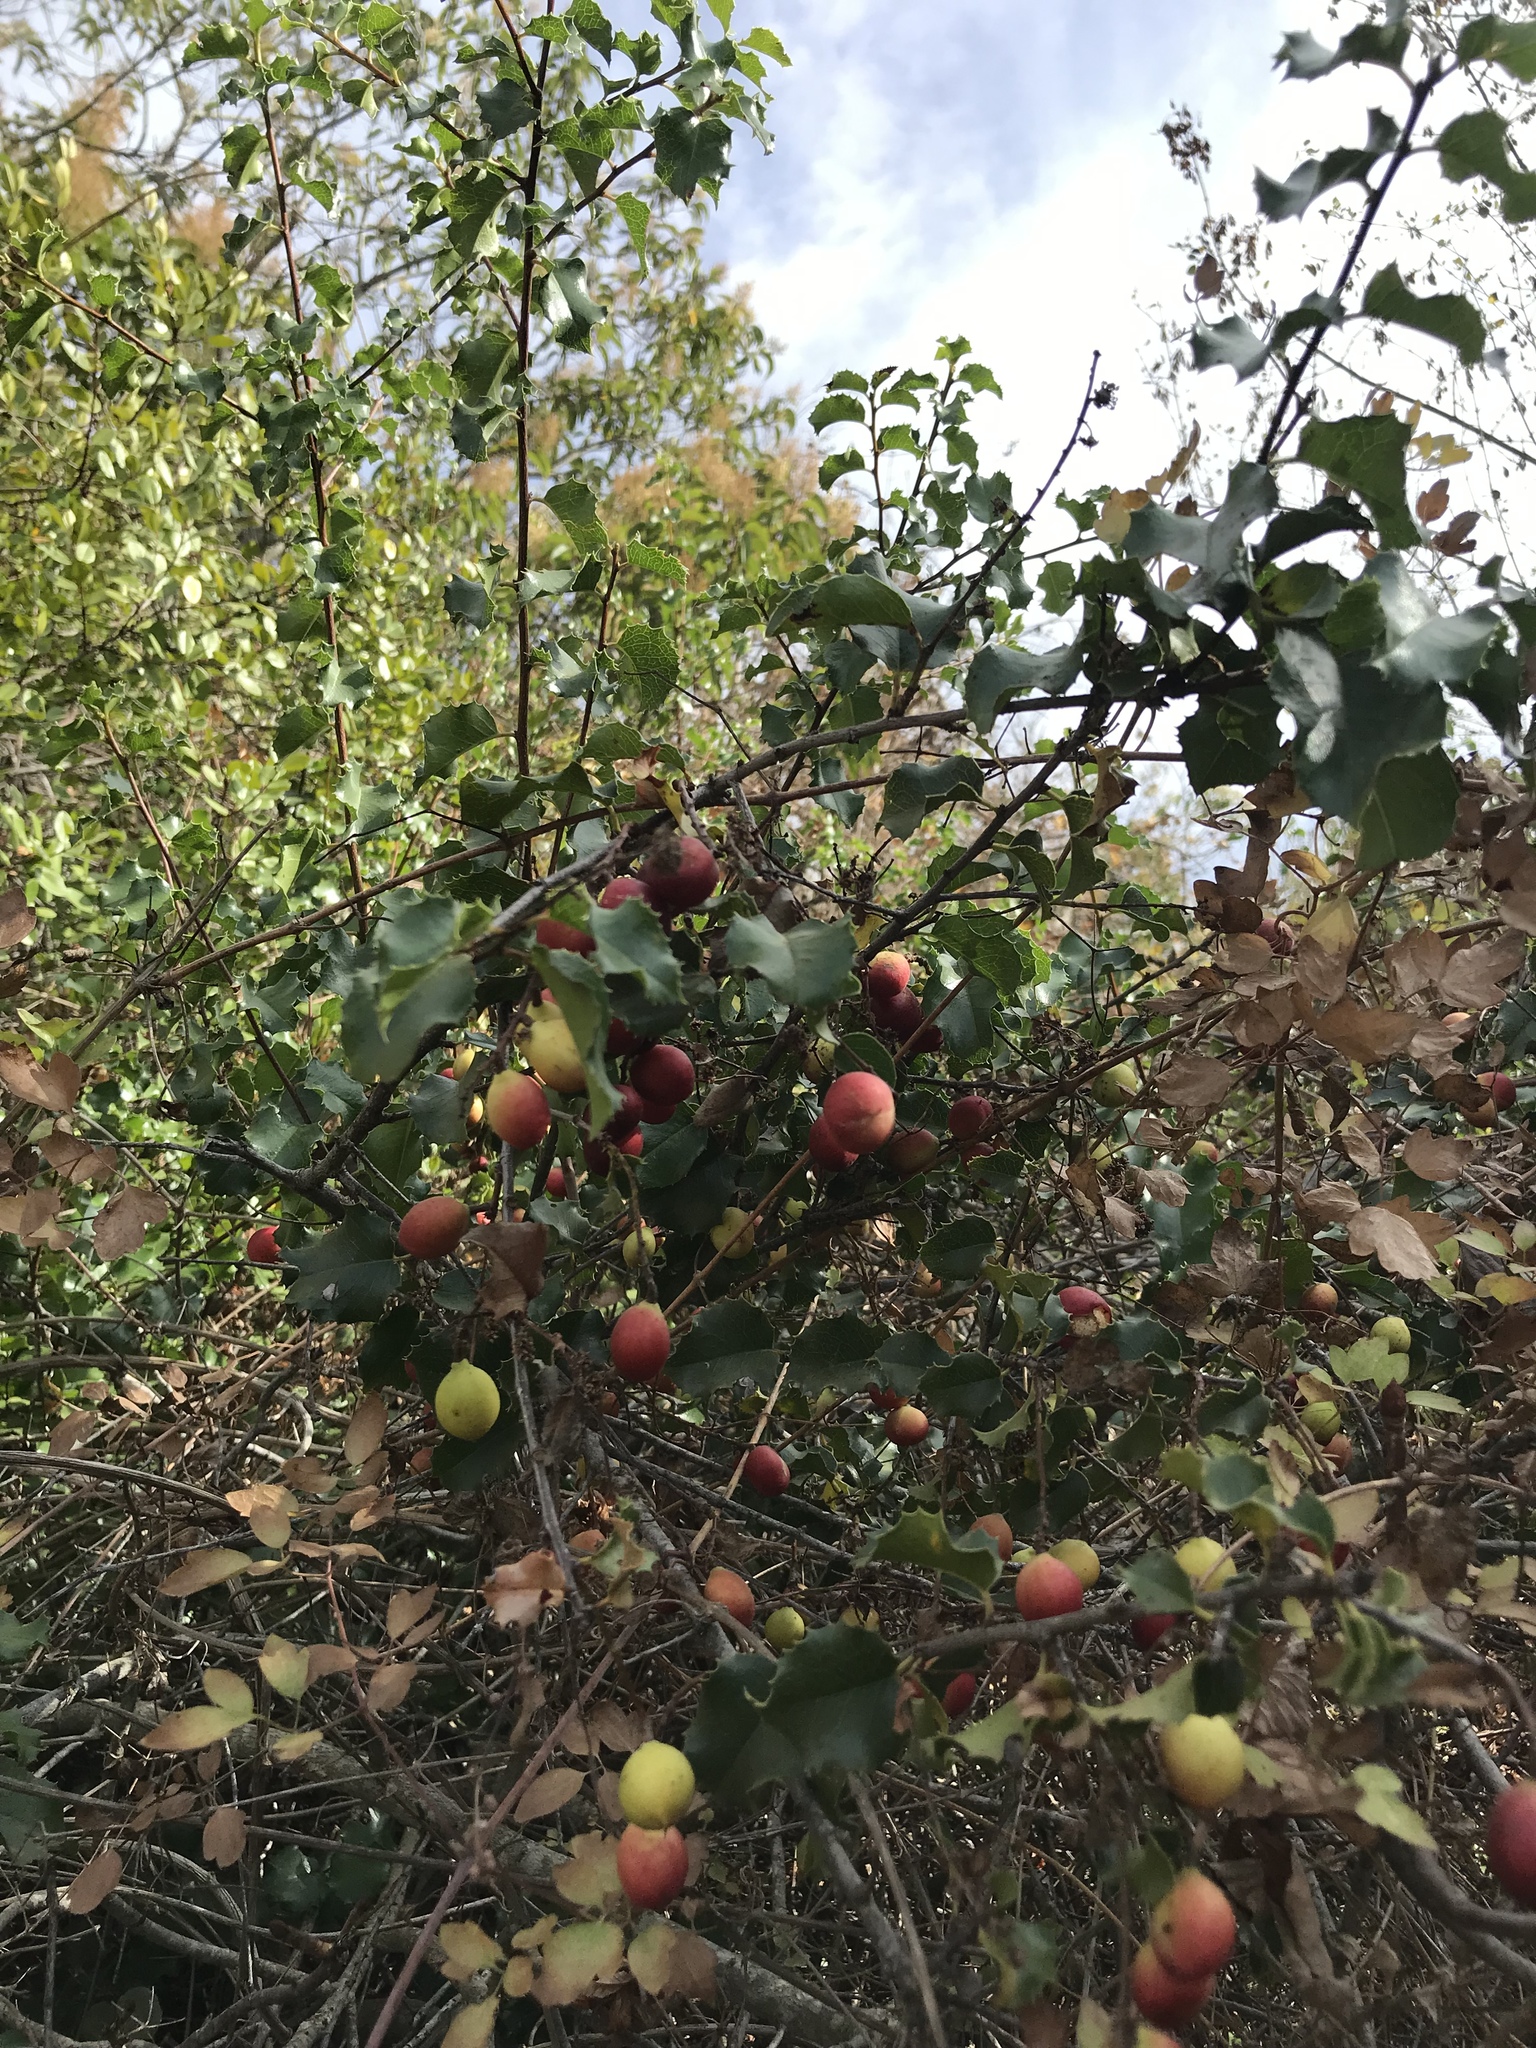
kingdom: Plantae
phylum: Tracheophyta
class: Magnoliopsida
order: Rosales
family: Rosaceae
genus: Prunus
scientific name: Prunus ilicifolia
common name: Hollyleaf cherry
